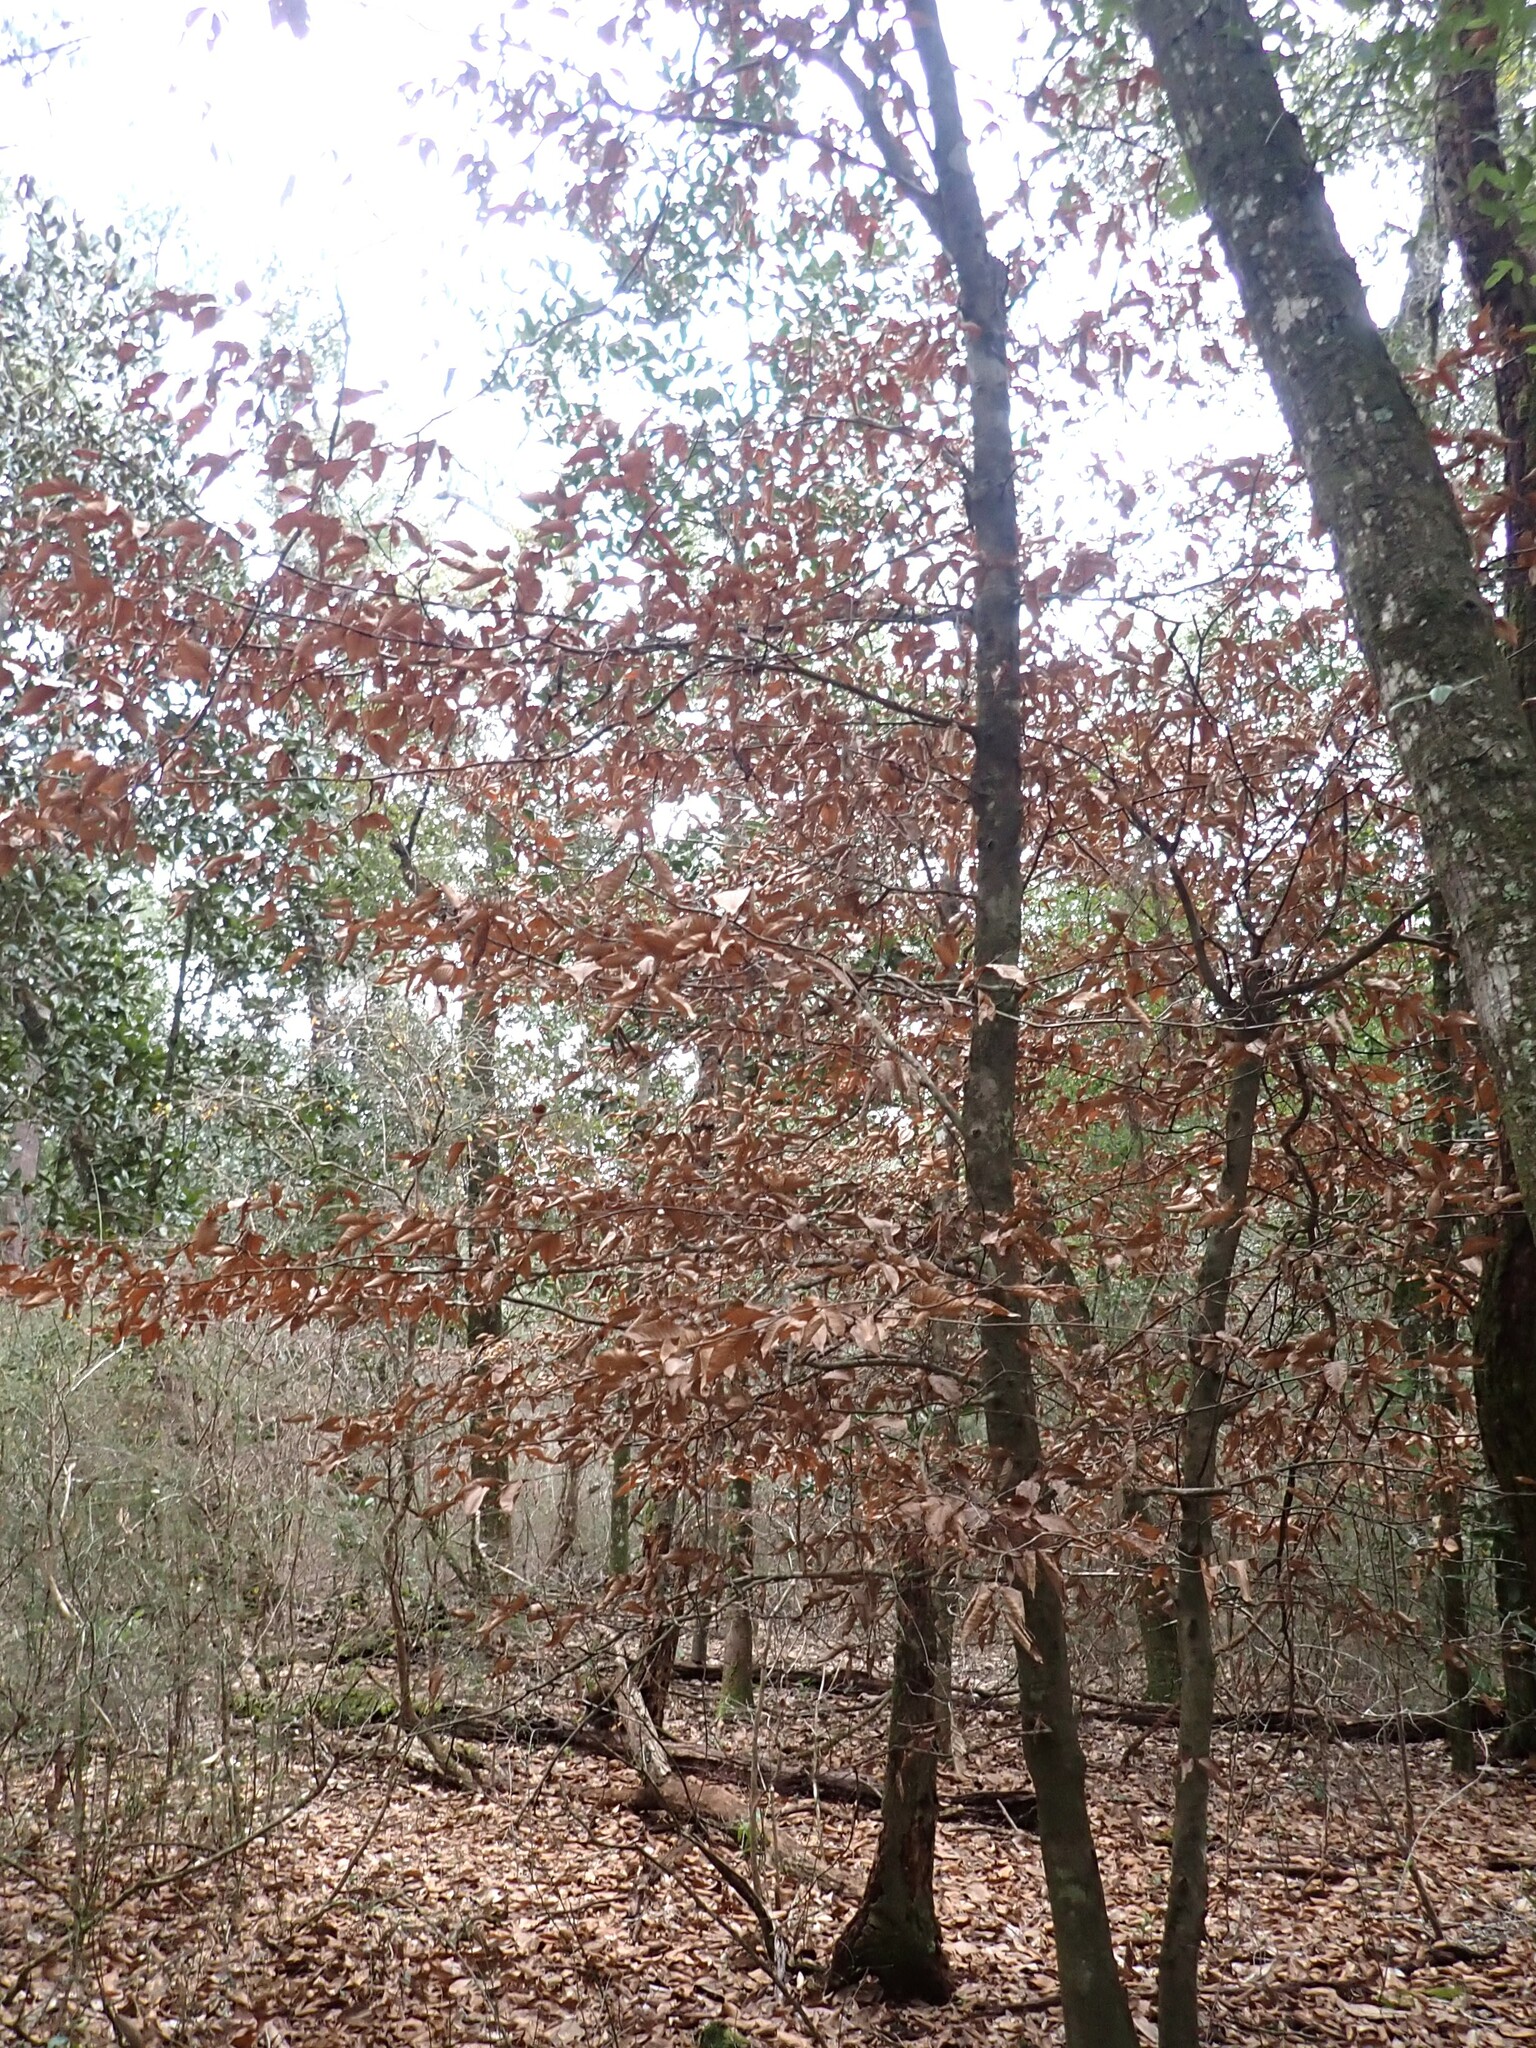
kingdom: Plantae
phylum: Tracheophyta
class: Magnoliopsida
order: Fagales
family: Fagaceae
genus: Fagus
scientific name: Fagus grandifolia
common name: American beech
